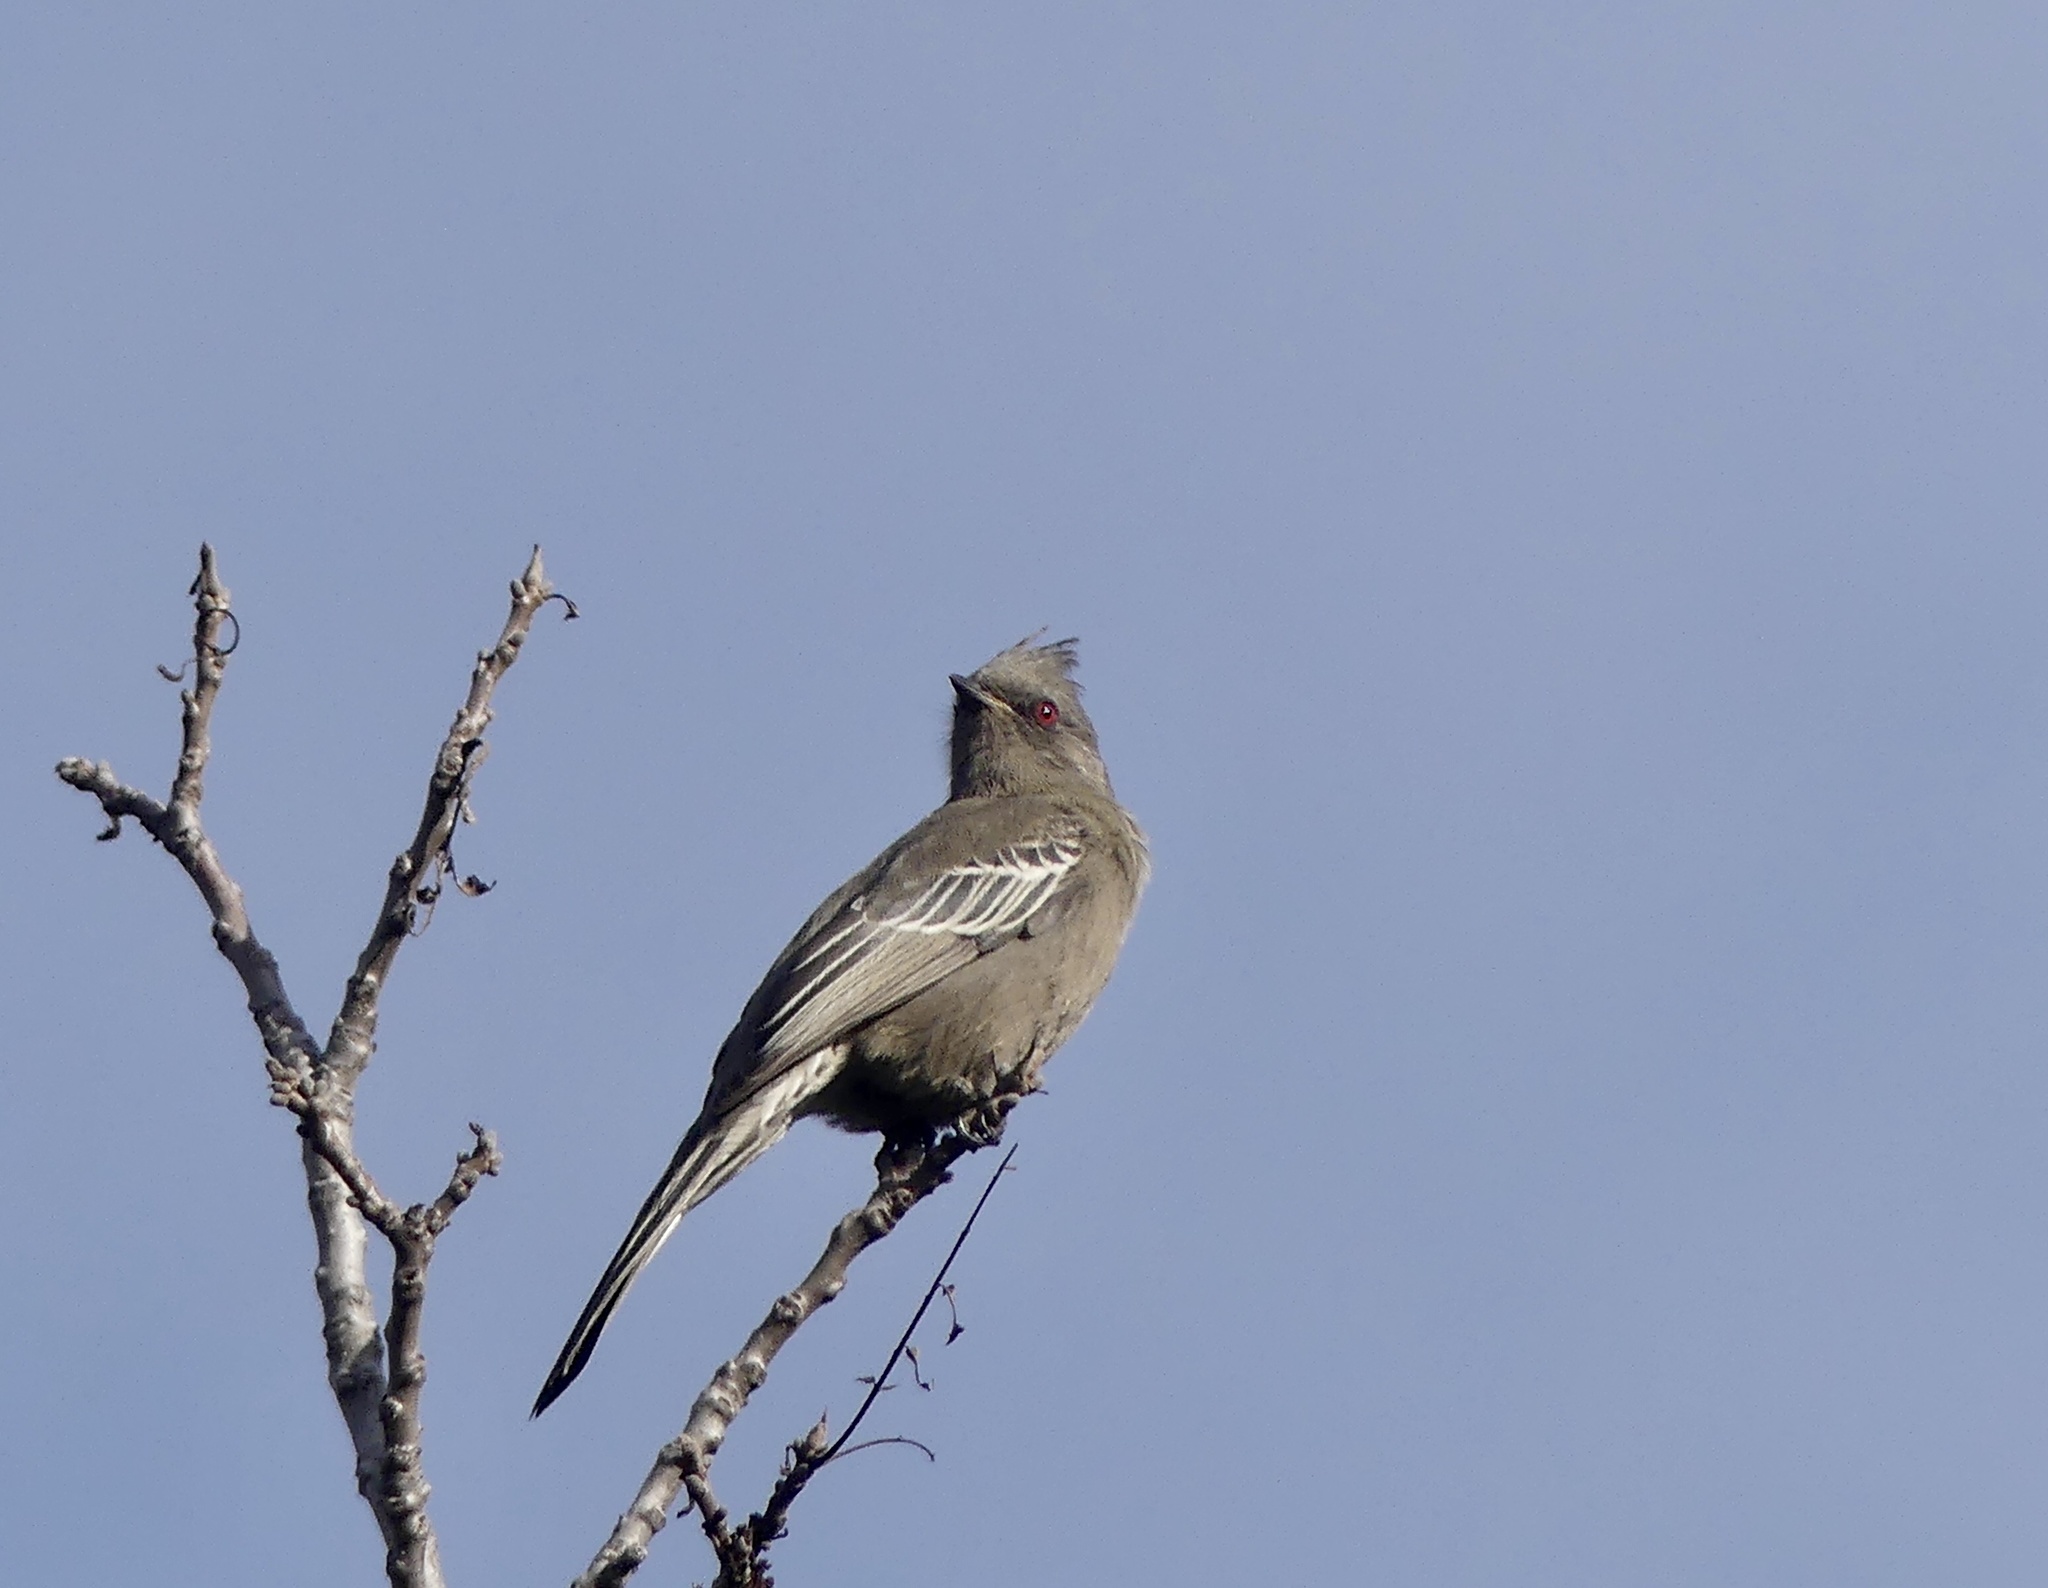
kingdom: Animalia
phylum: Chordata
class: Aves
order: Passeriformes
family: Ptilogonatidae
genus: Phainopepla
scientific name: Phainopepla nitens
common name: Phainopepla
